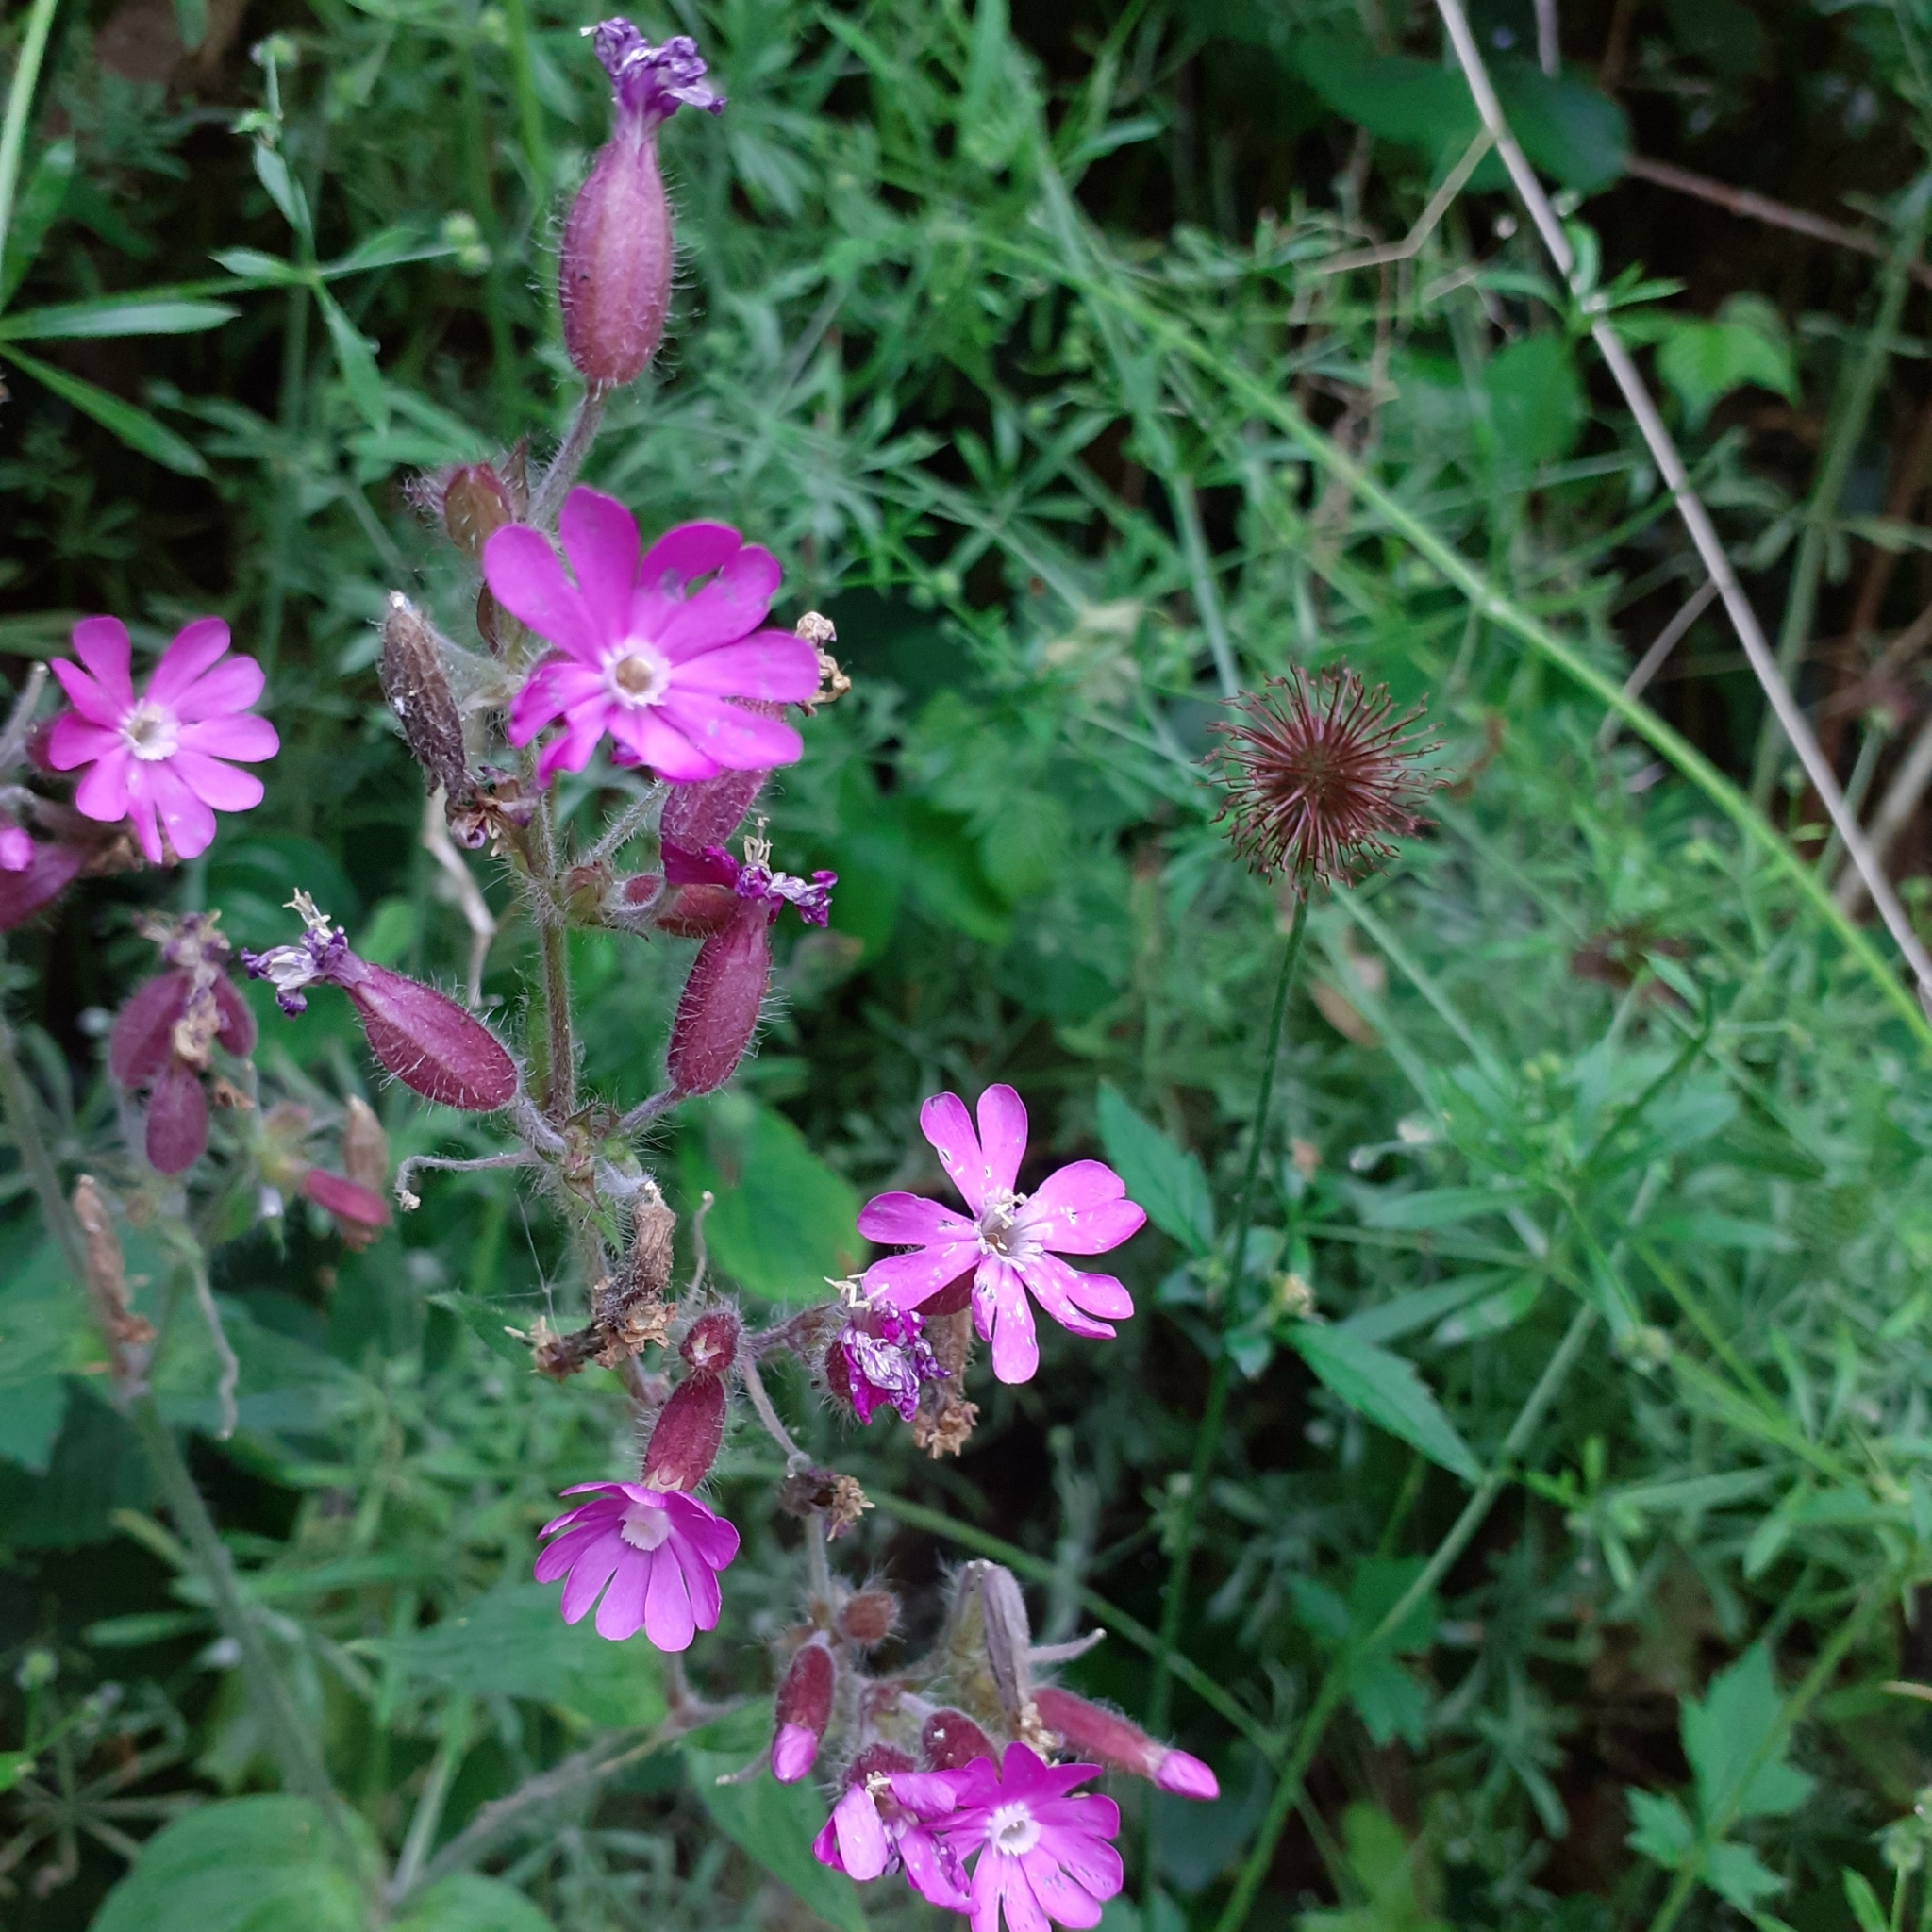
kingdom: Plantae
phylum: Tracheophyta
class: Magnoliopsida
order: Caryophyllales
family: Caryophyllaceae
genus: Silene
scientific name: Silene dioica
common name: Red campion
